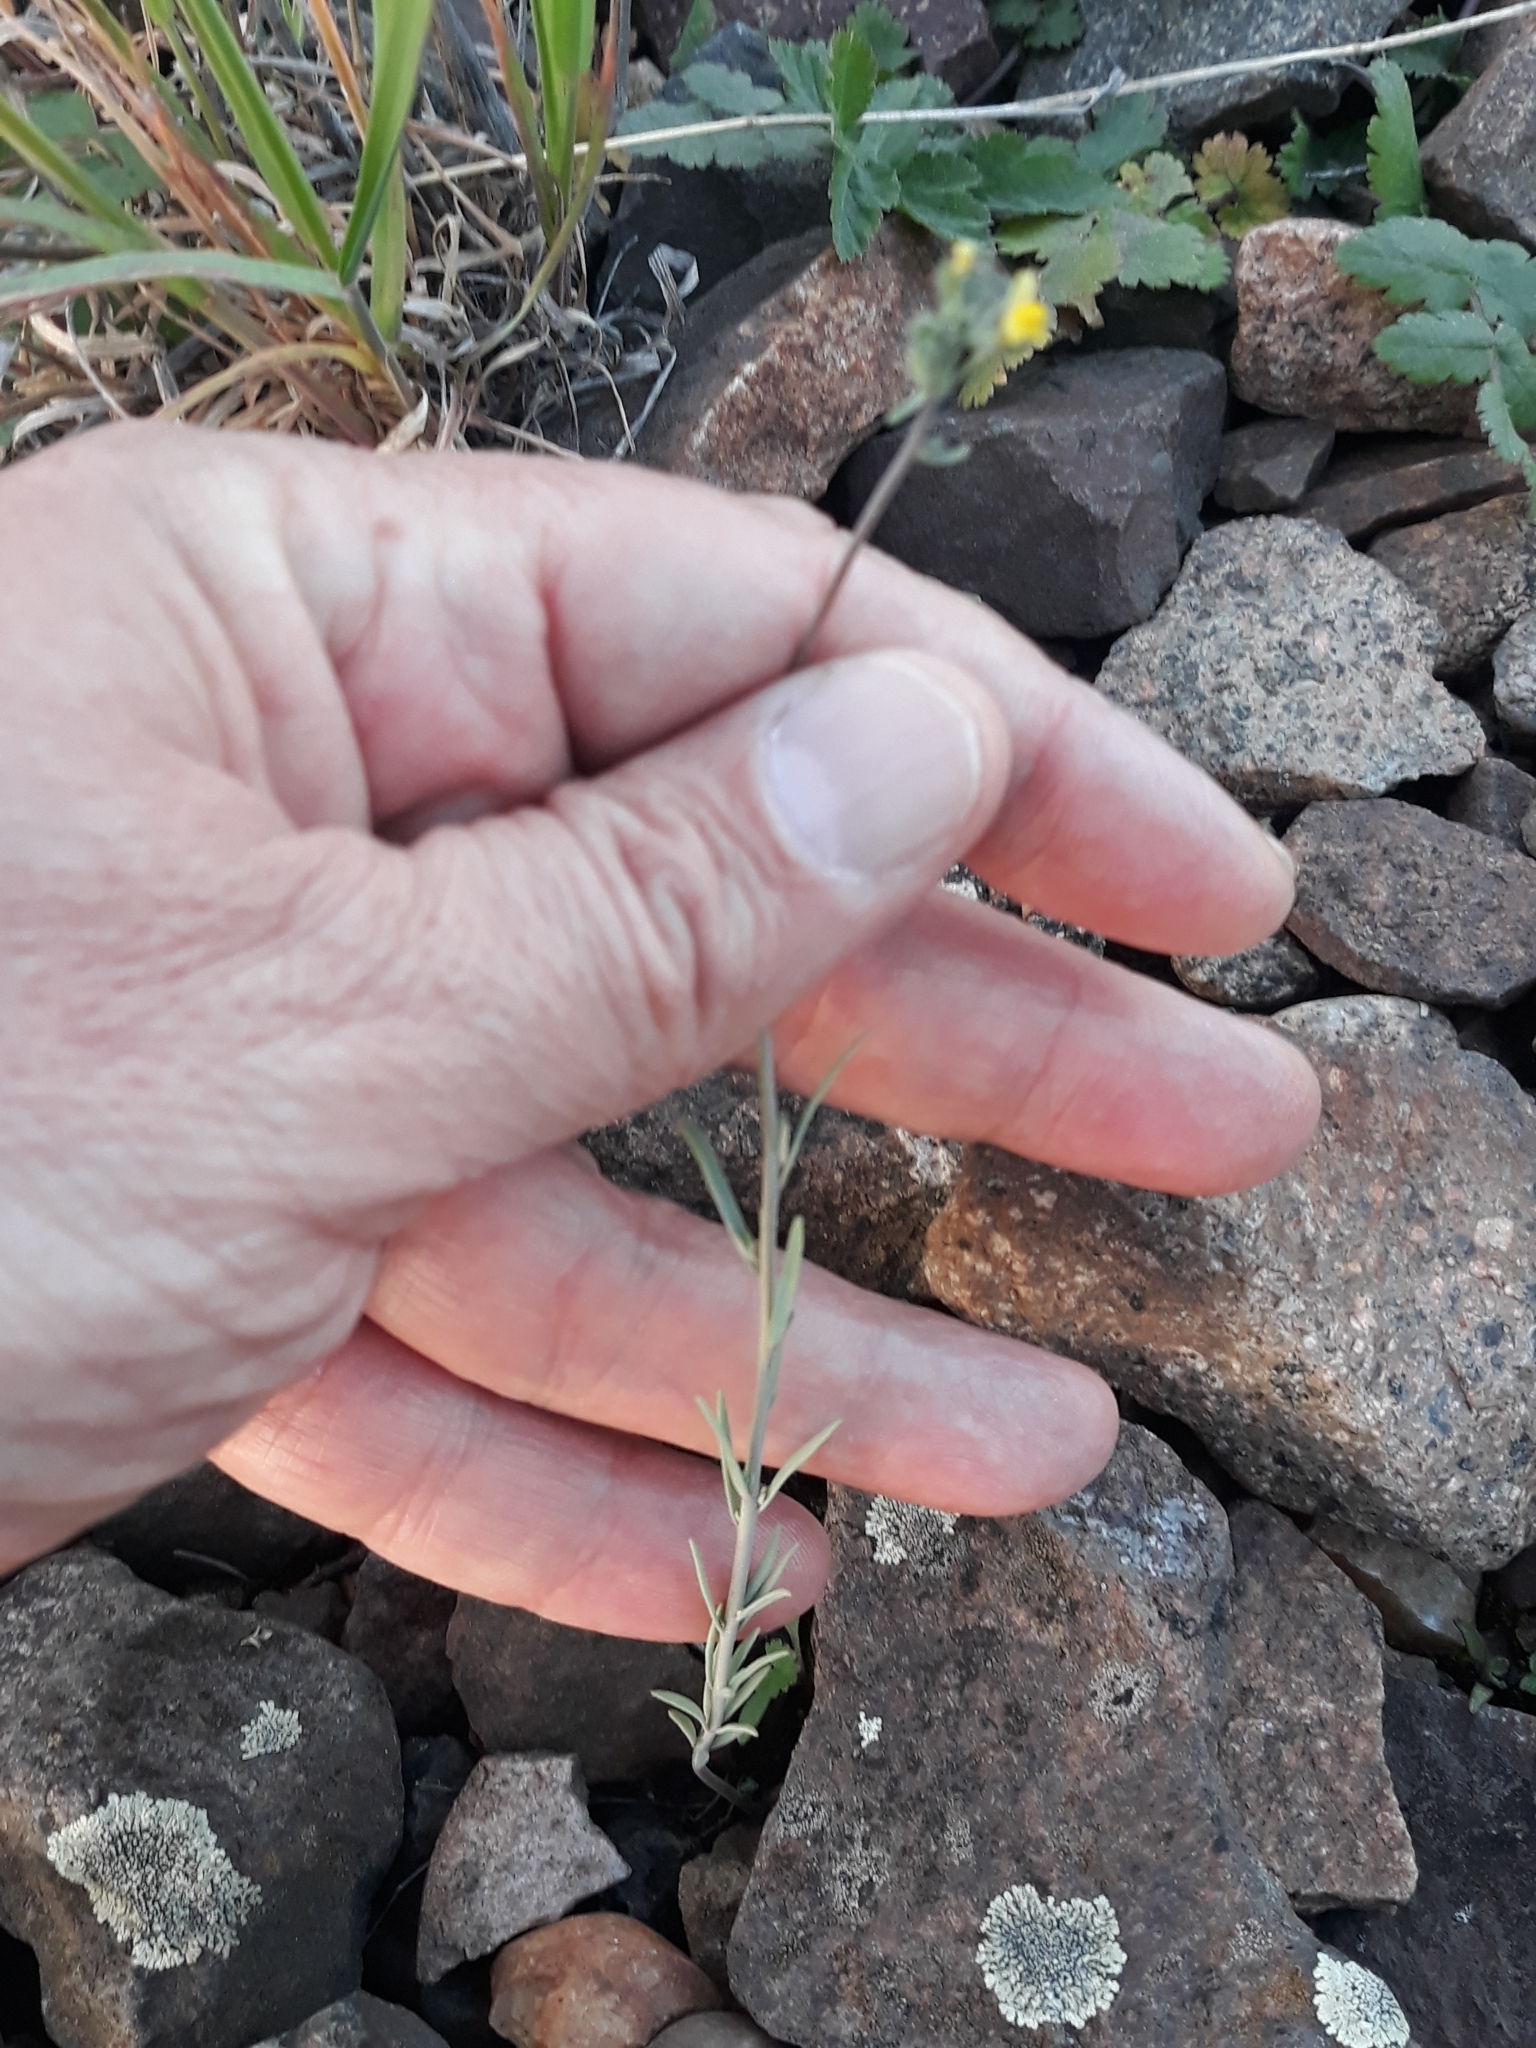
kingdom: Plantae
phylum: Tracheophyta
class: Magnoliopsida
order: Lamiales
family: Plantaginaceae
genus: Linaria
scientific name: Linaria simplex
